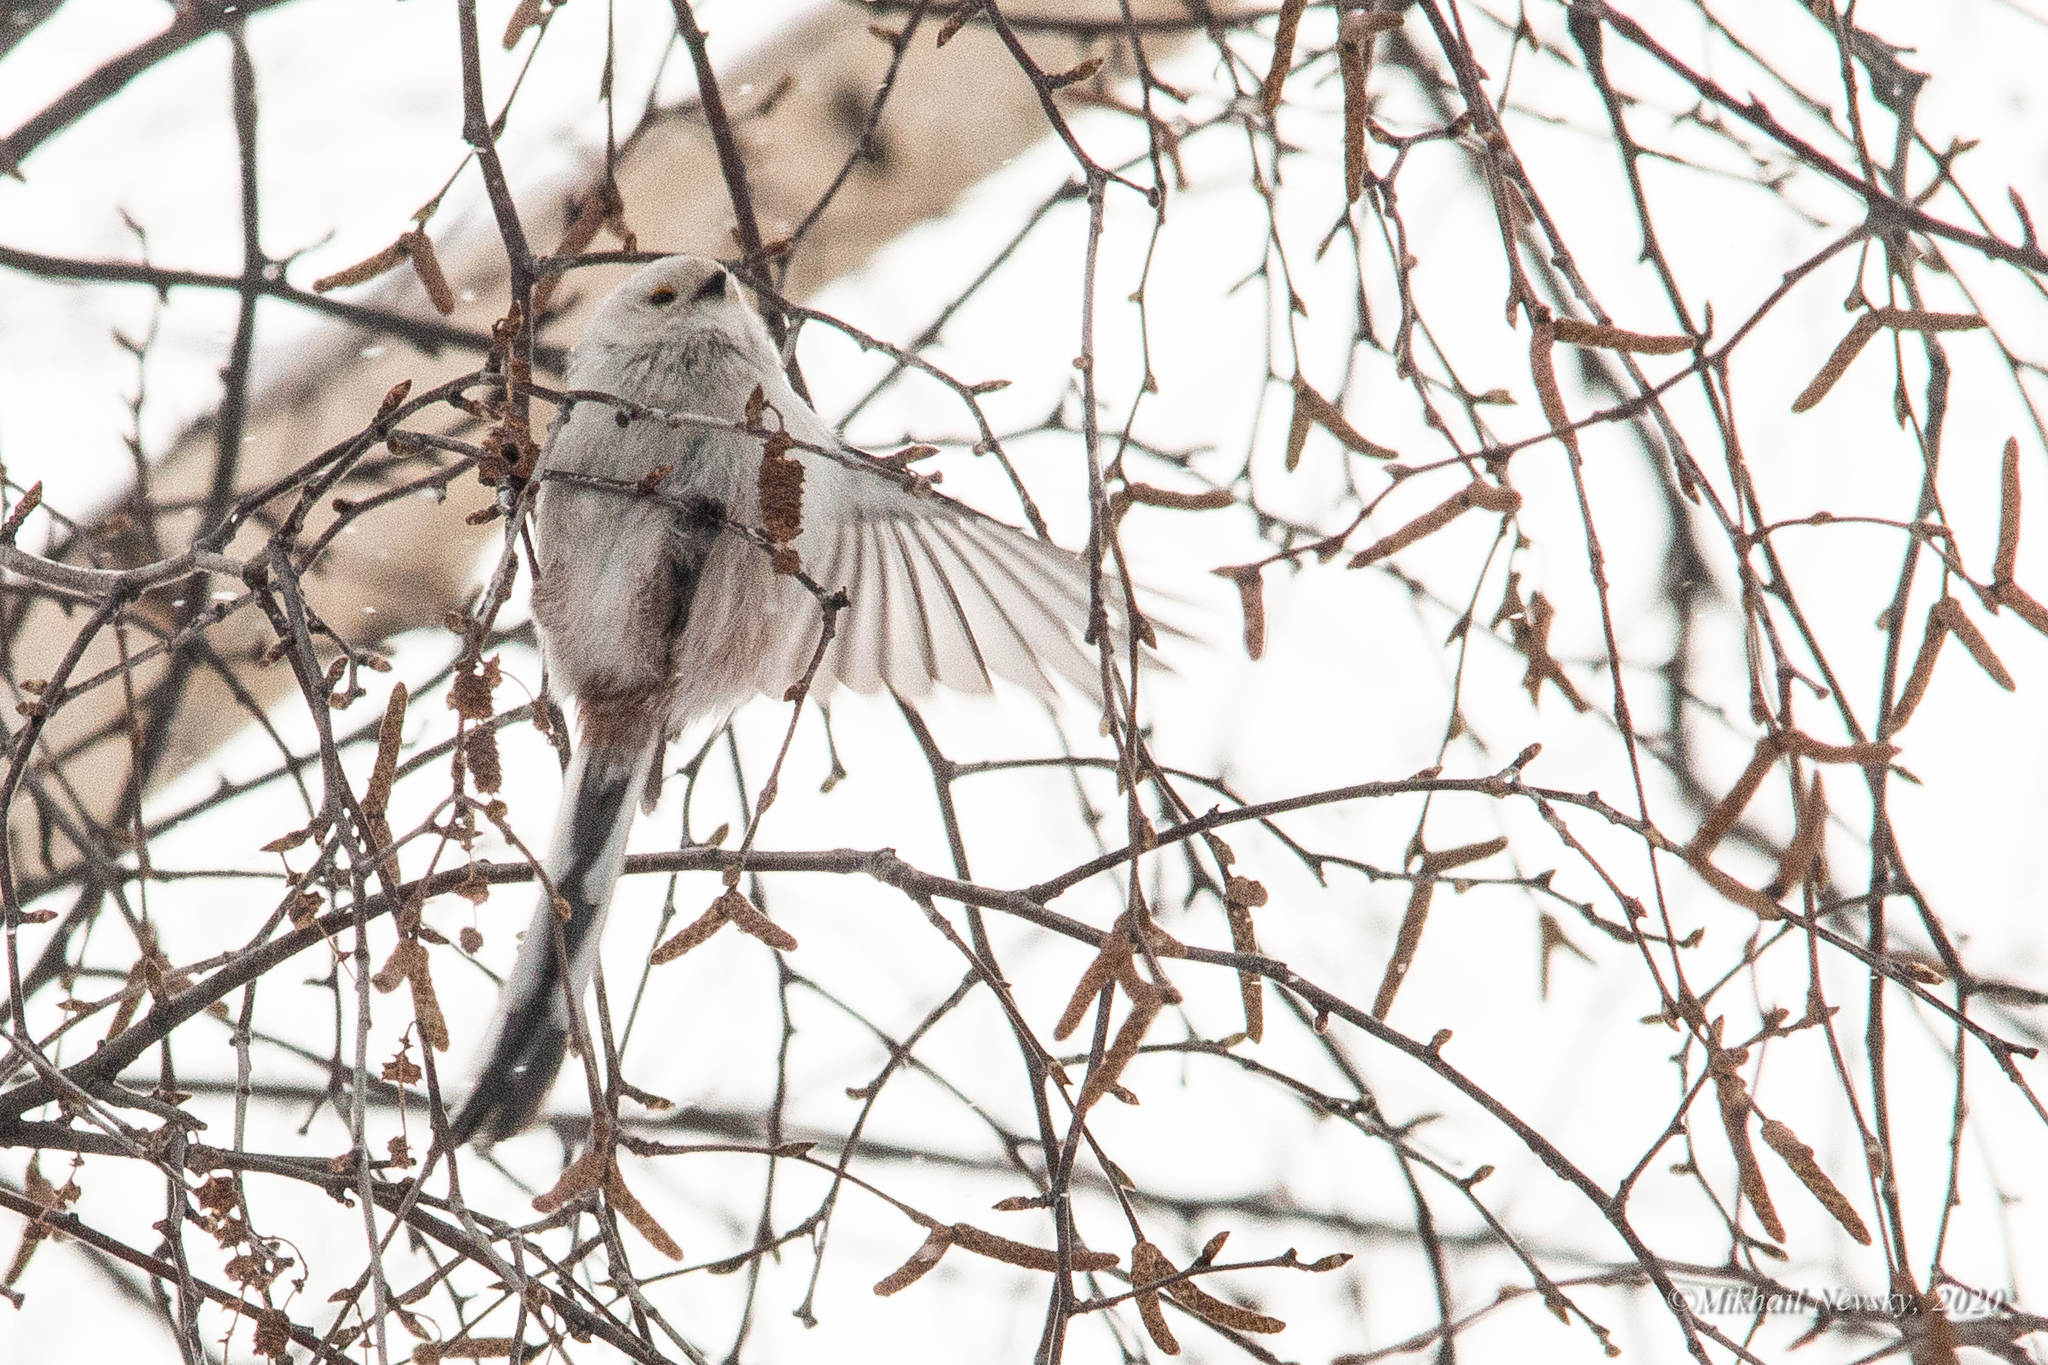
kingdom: Animalia
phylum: Chordata
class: Aves
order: Passeriformes
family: Aegithalidae
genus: Aegithalos
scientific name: Aegithalos caudatus
